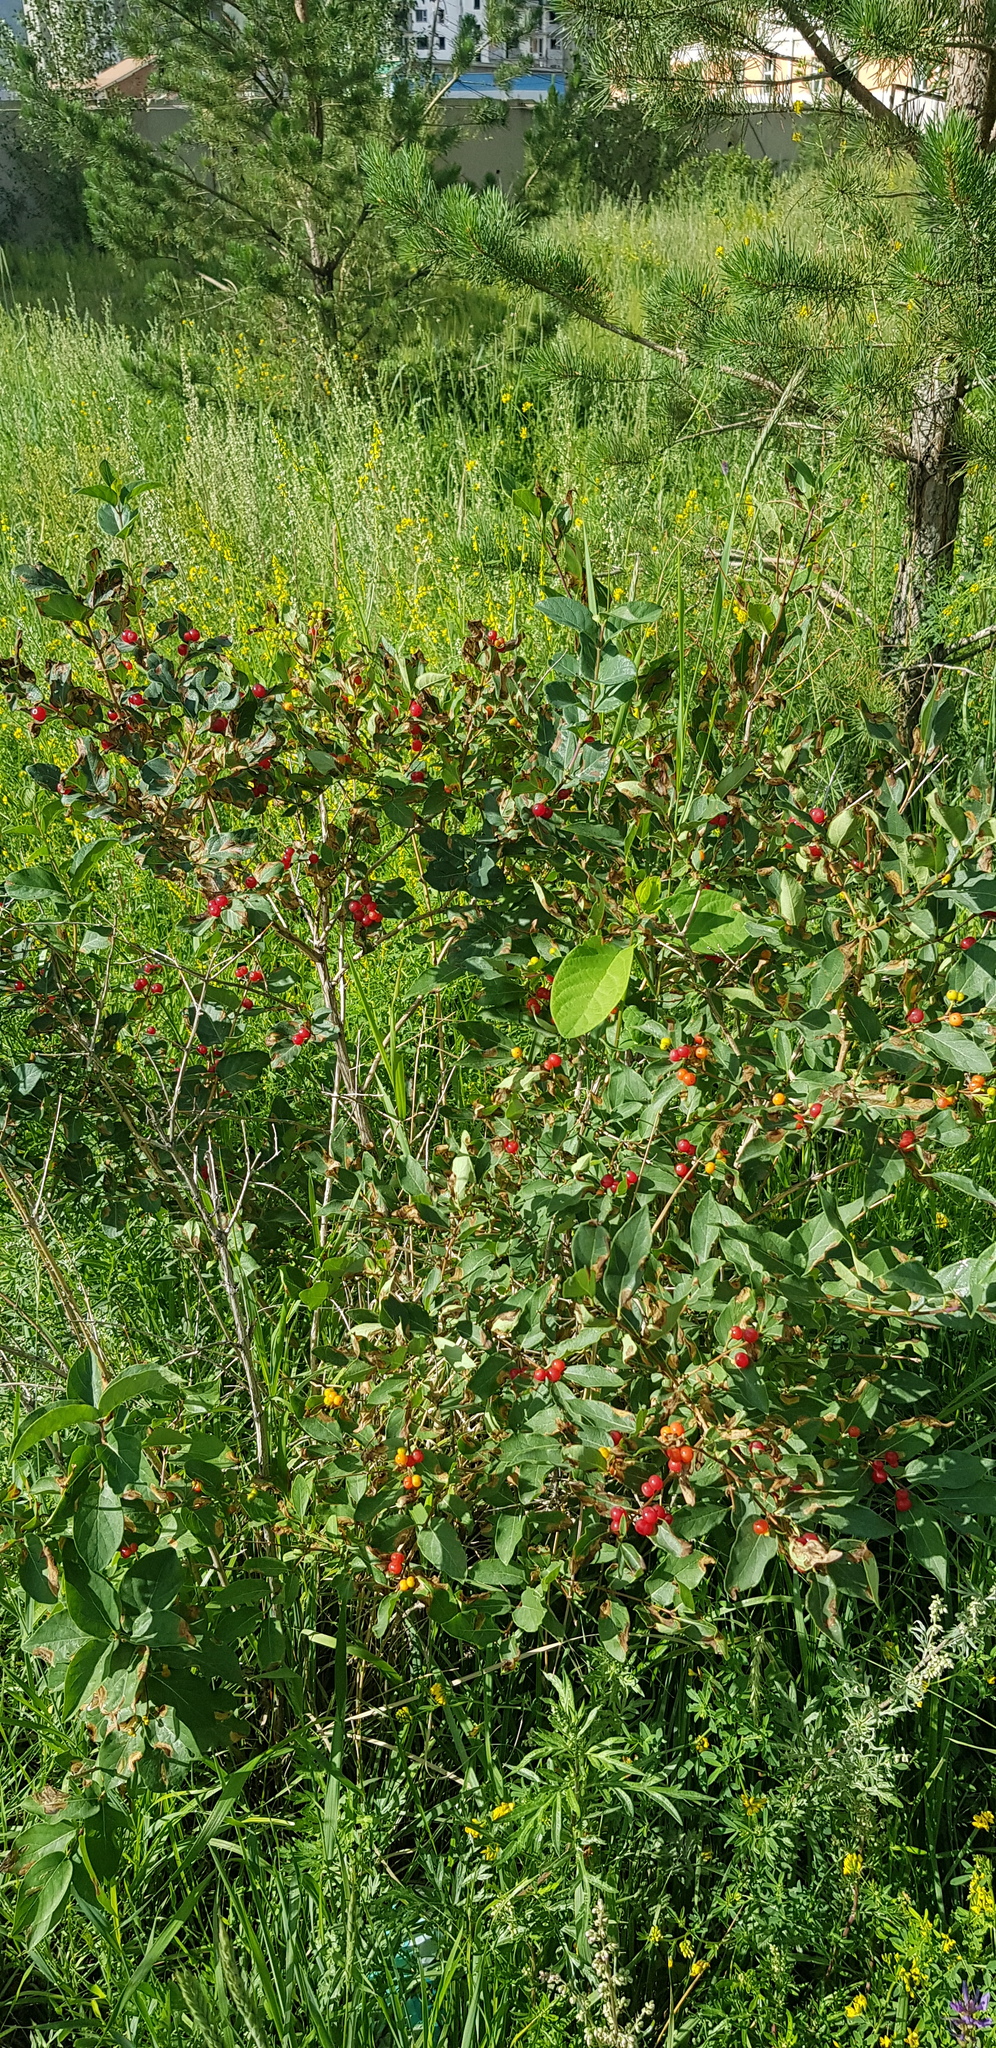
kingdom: Plantae
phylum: Tracheophyta
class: Magnoliopsida
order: Dipsacales
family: Caprifoliaceae
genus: Lonicera
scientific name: Lonicera tatarica
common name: Tatarian honeysuckle
